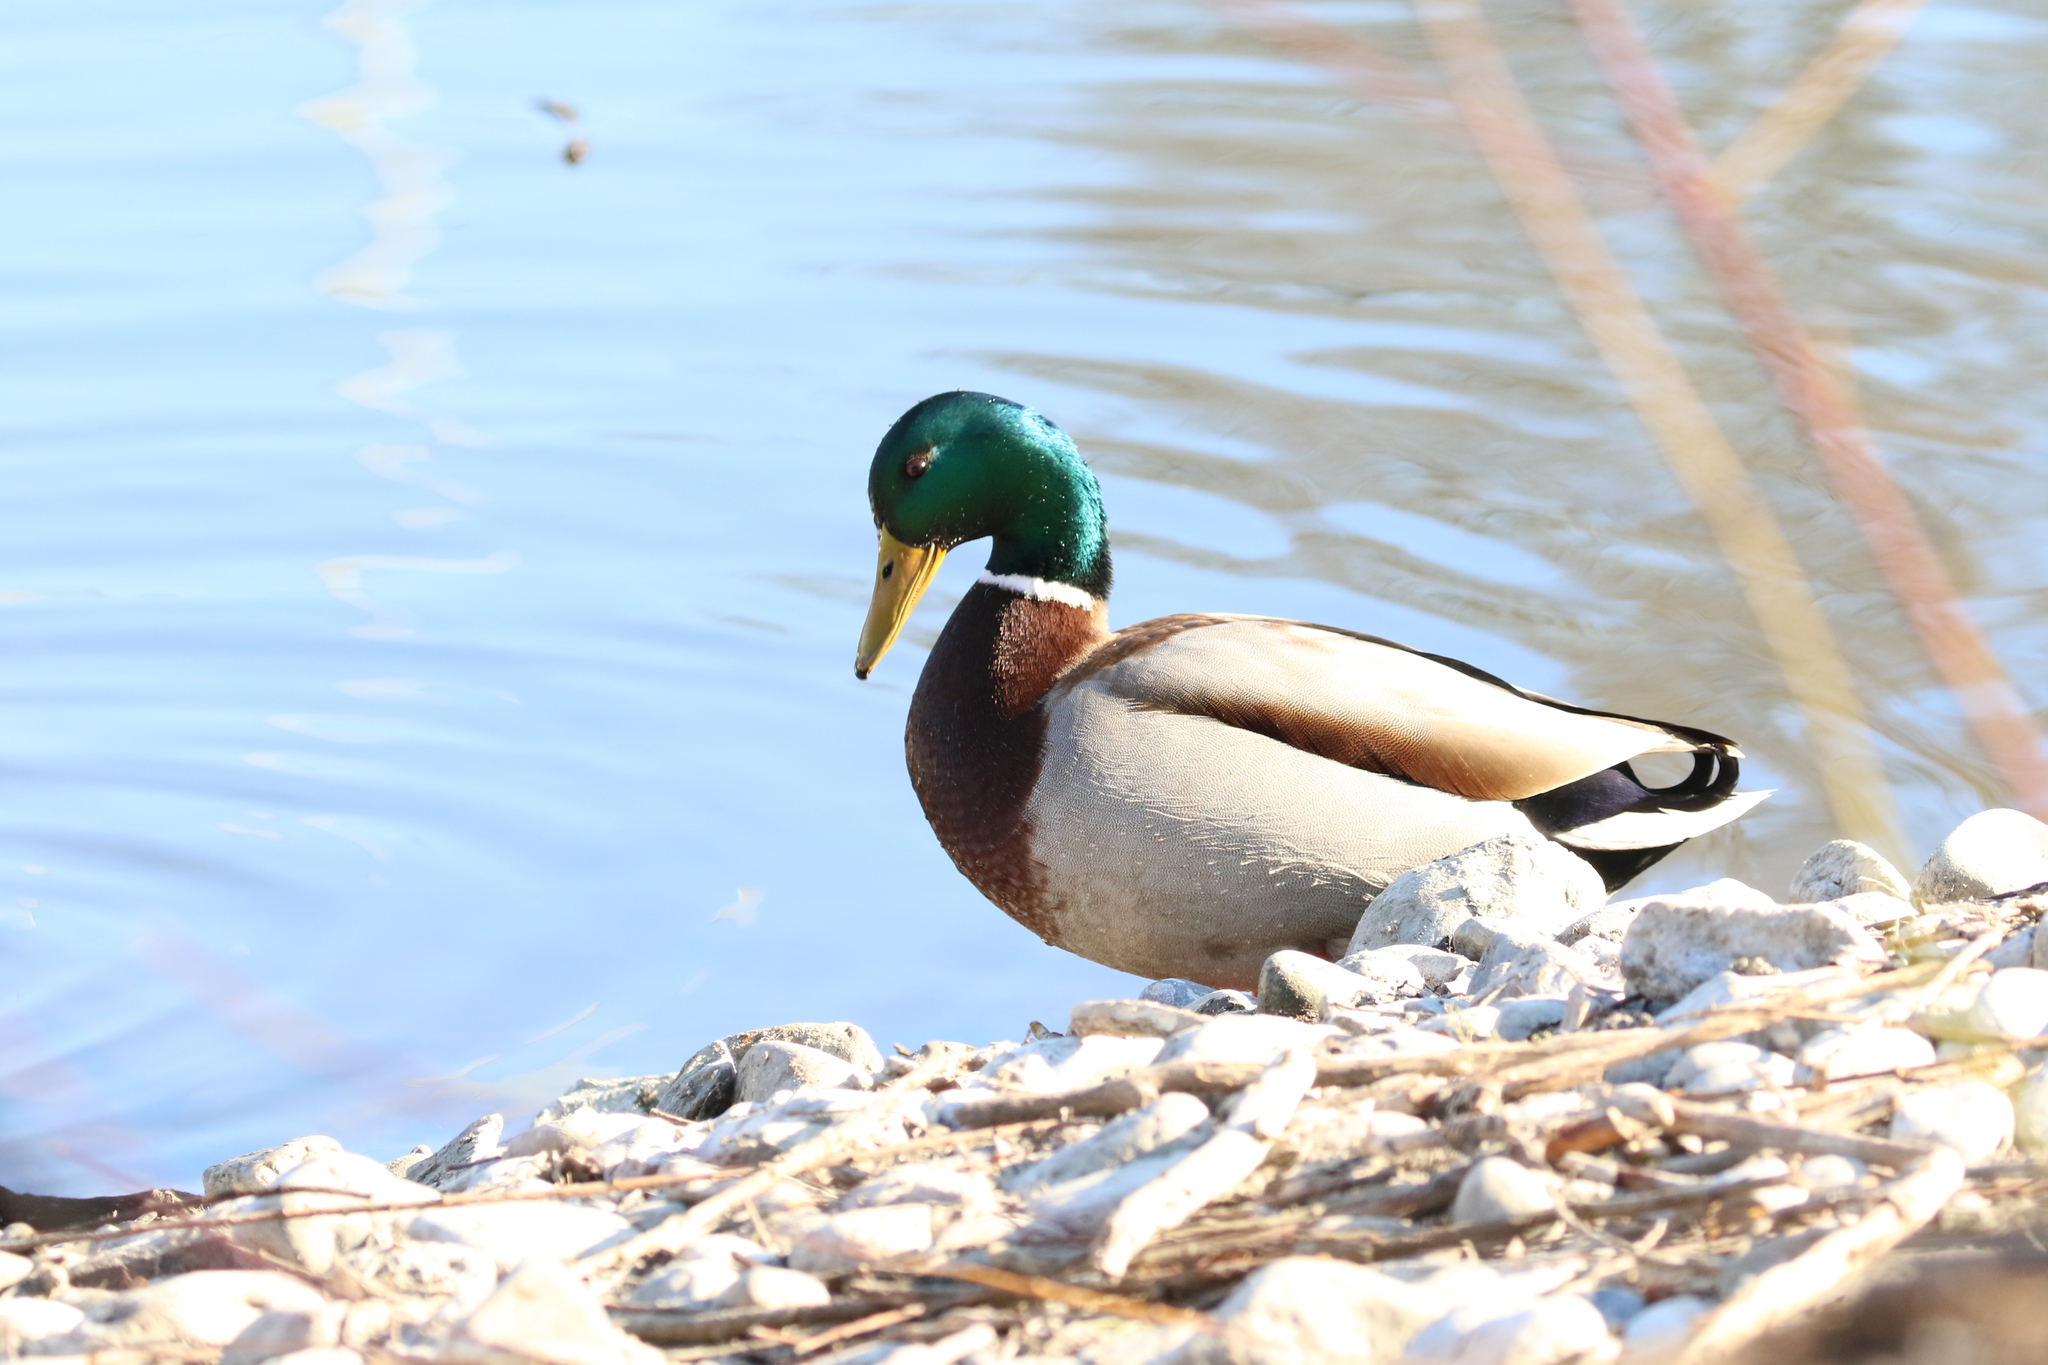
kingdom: Animalia
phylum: Chordata
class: Aves
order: Anseriformes
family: Anatidae
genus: Anas
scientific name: Anas platyrhynchos
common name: Mallard
